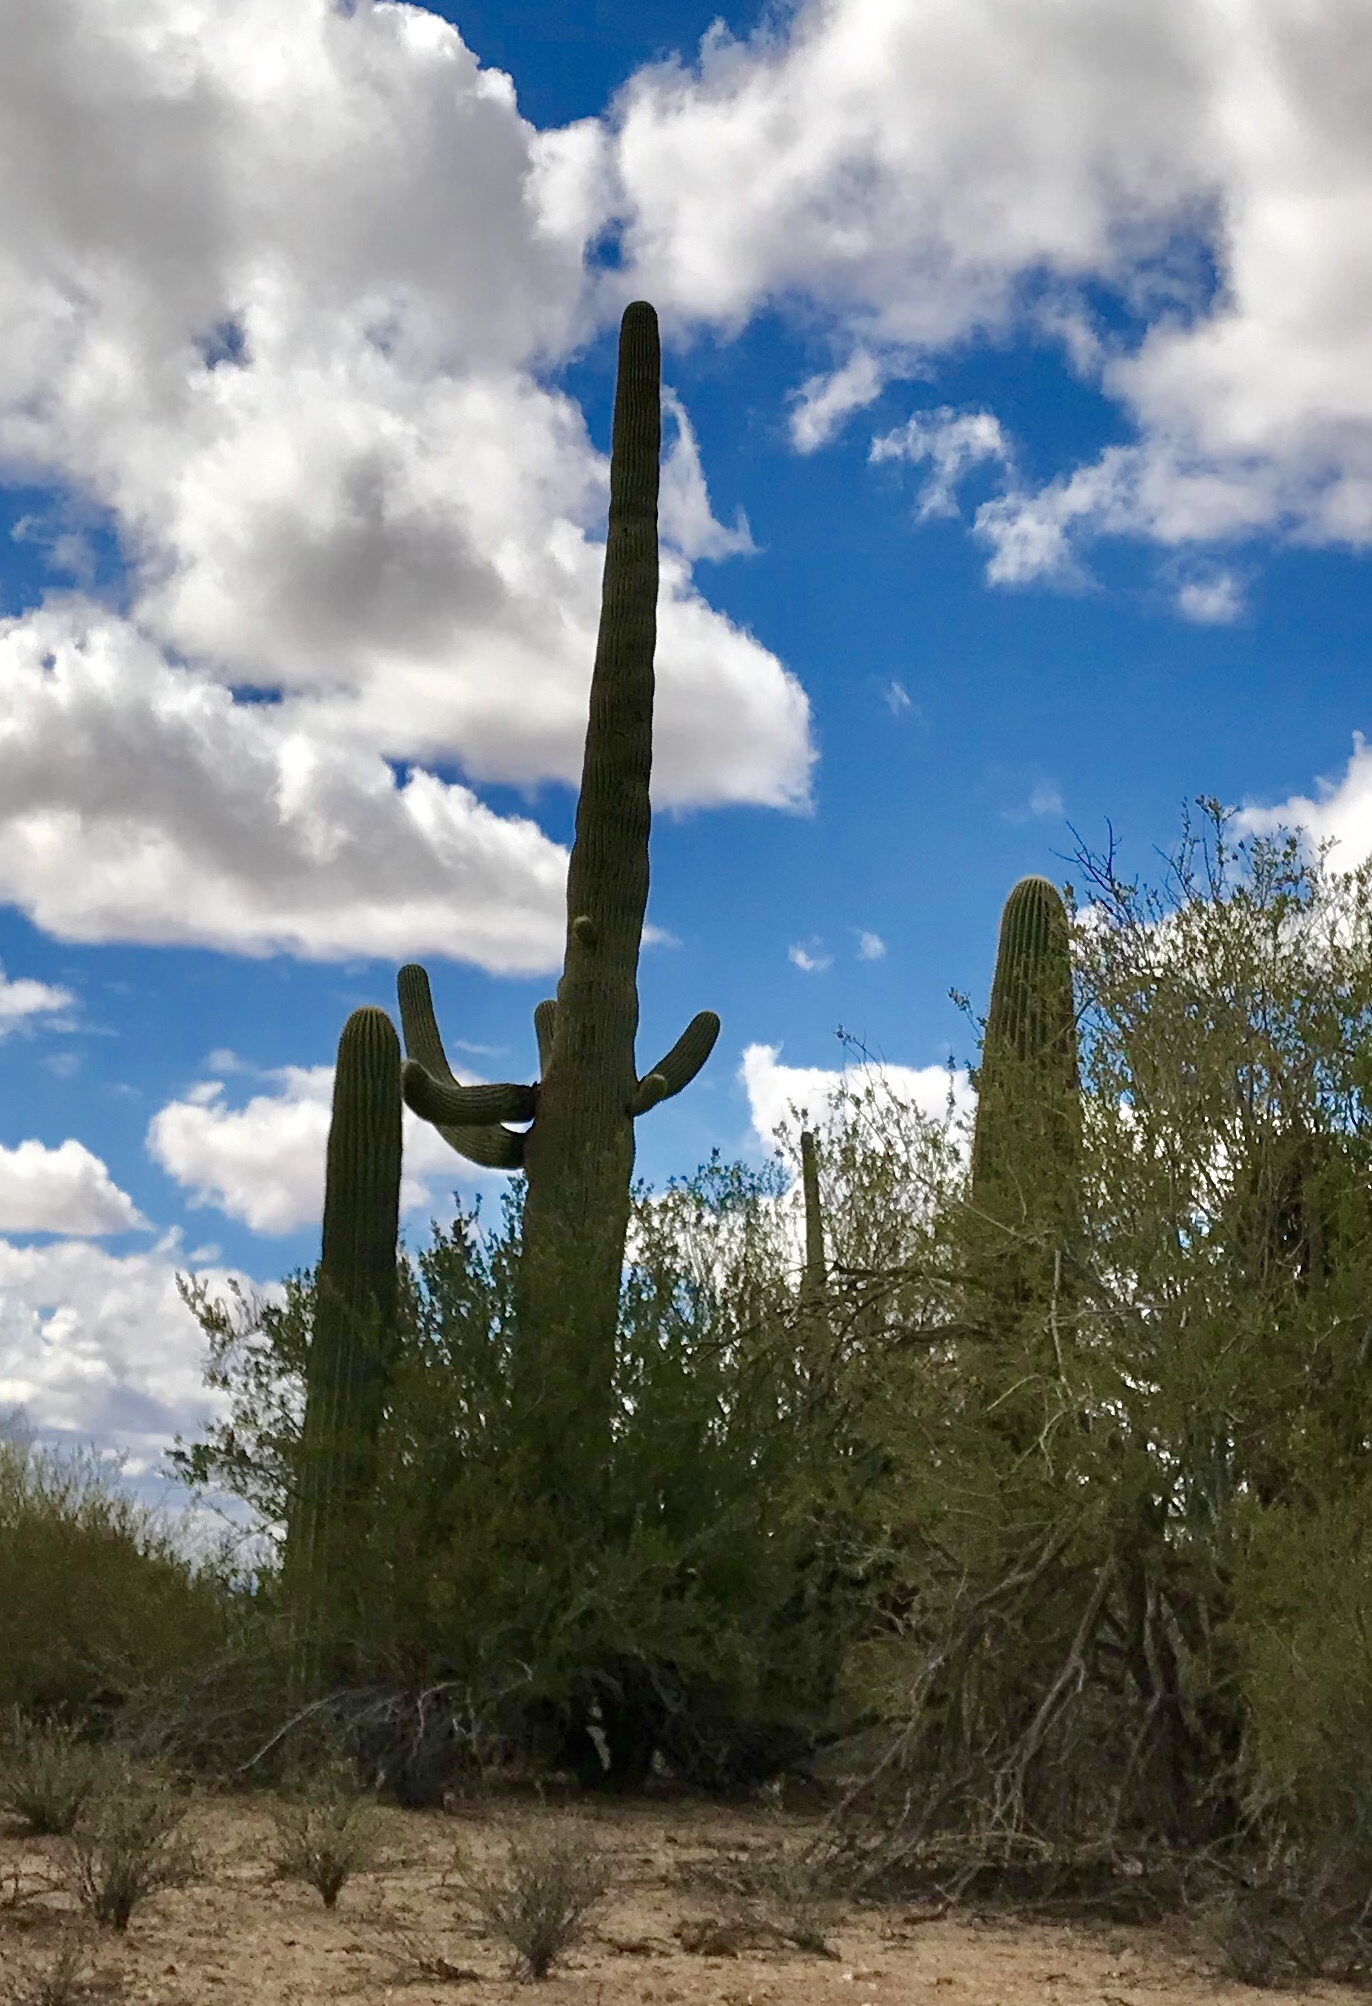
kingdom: Plantae
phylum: Tracheophyta
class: Magnoliopsida
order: Caryophyllales
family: Cactaceae
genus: Carnegiea
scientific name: Carnegiea gigantea
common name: Saguaro
